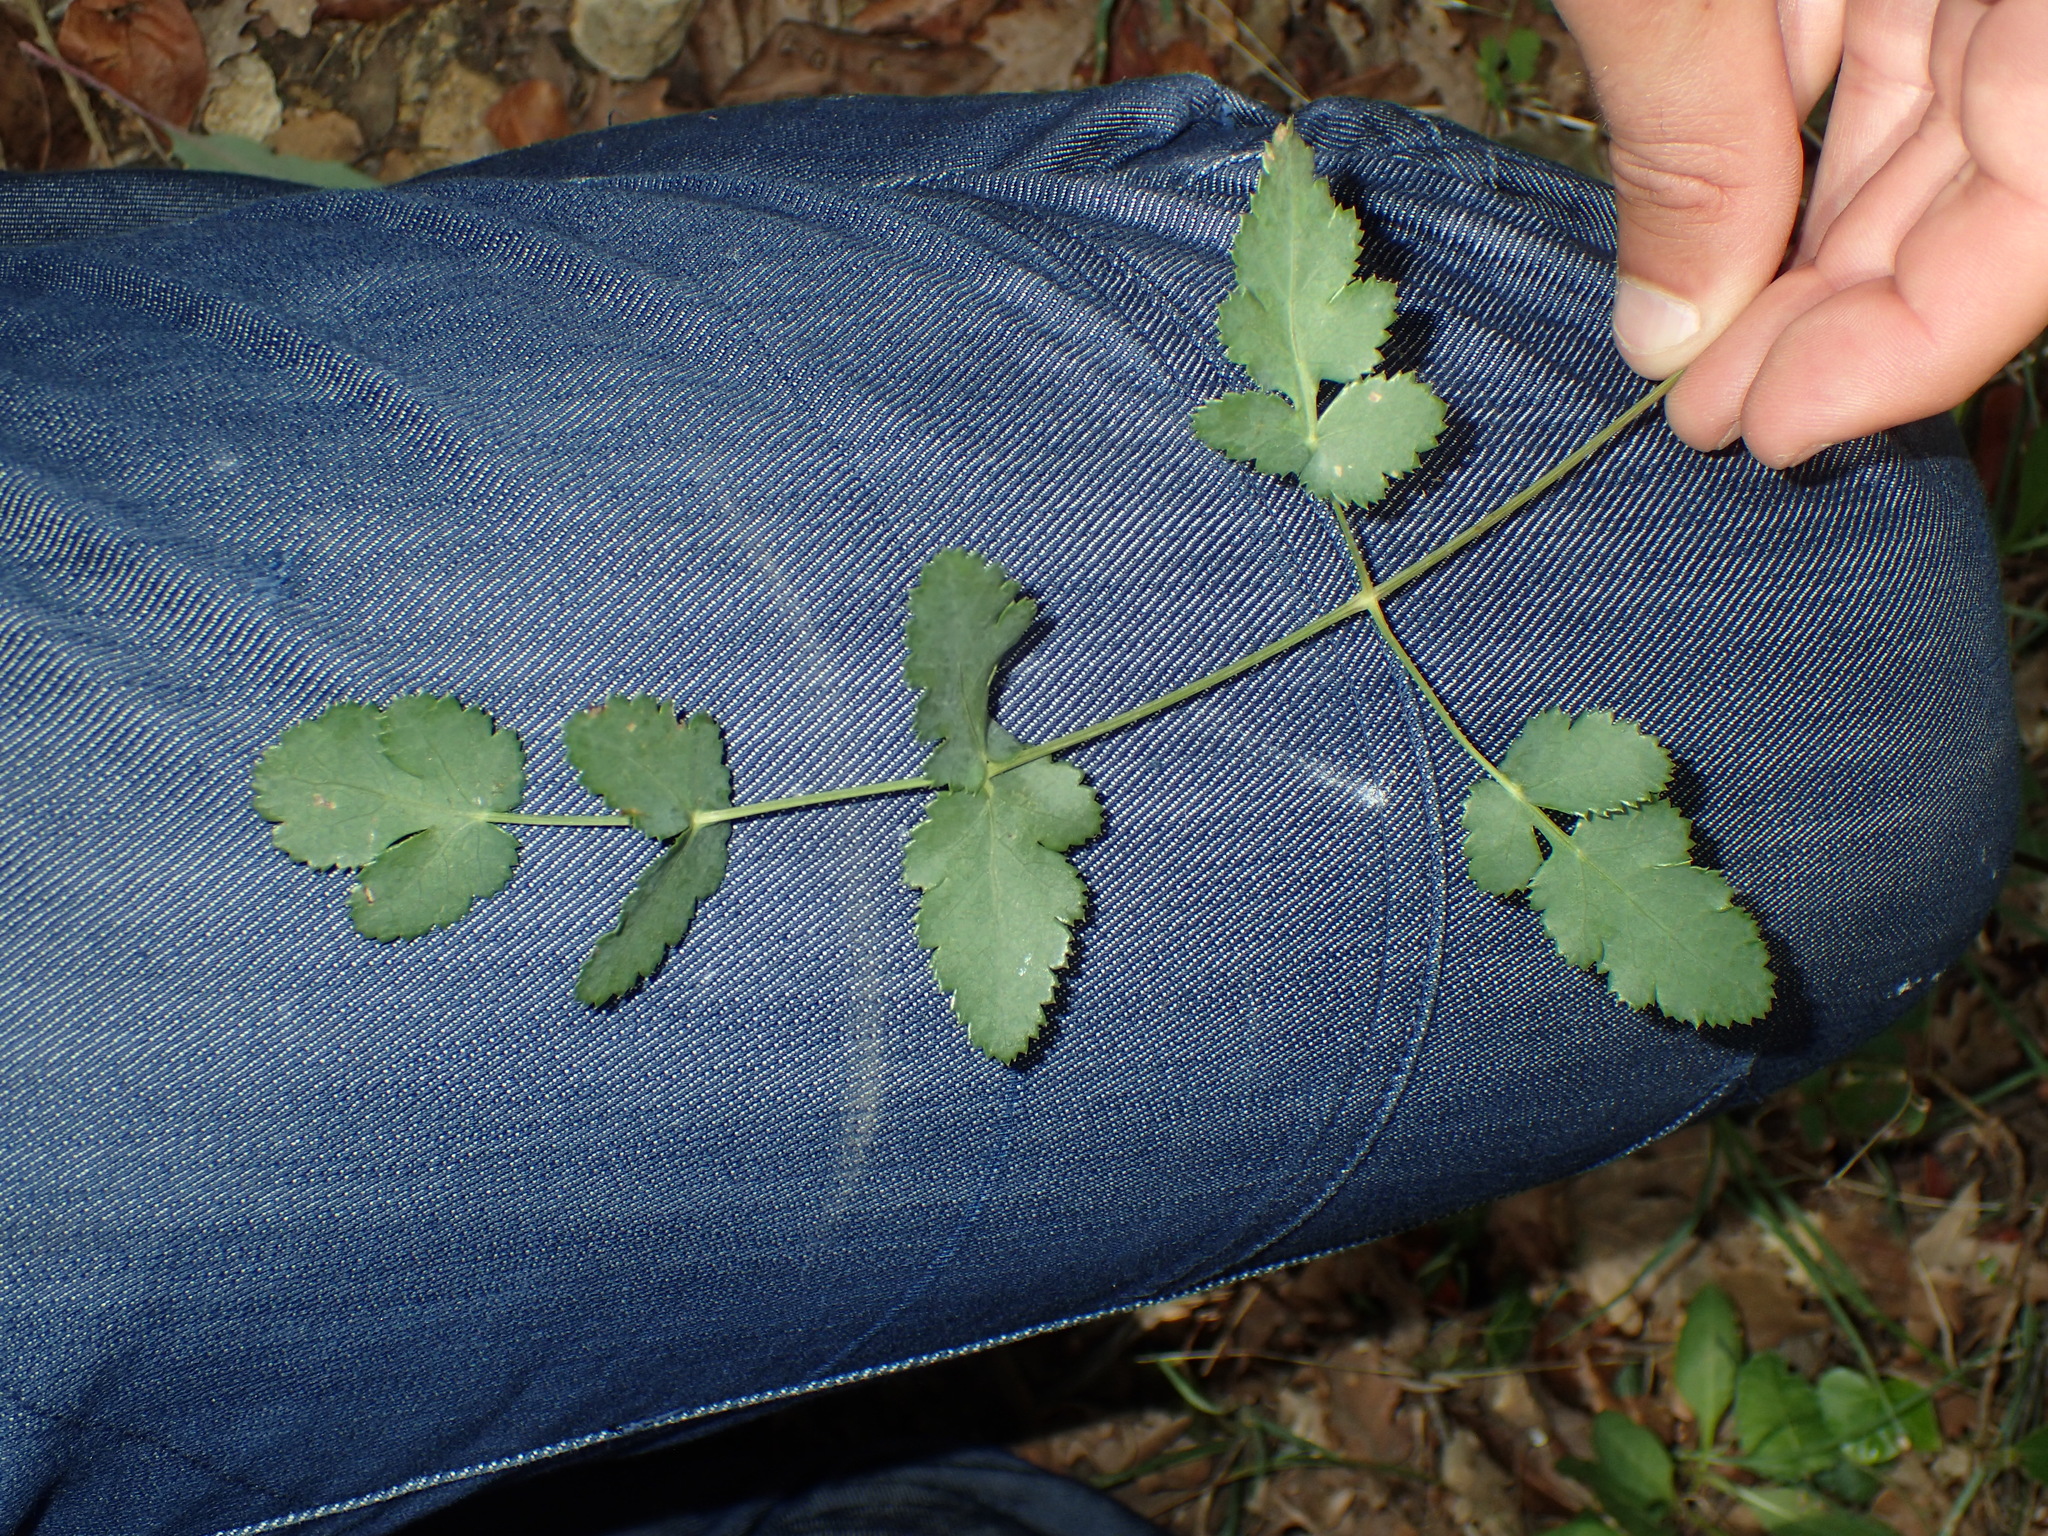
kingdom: Plantae
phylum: Tracheophyta
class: Magnoliopsida
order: Apiales
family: Apiaceae
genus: Cervaria
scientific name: Cervaria rivini
